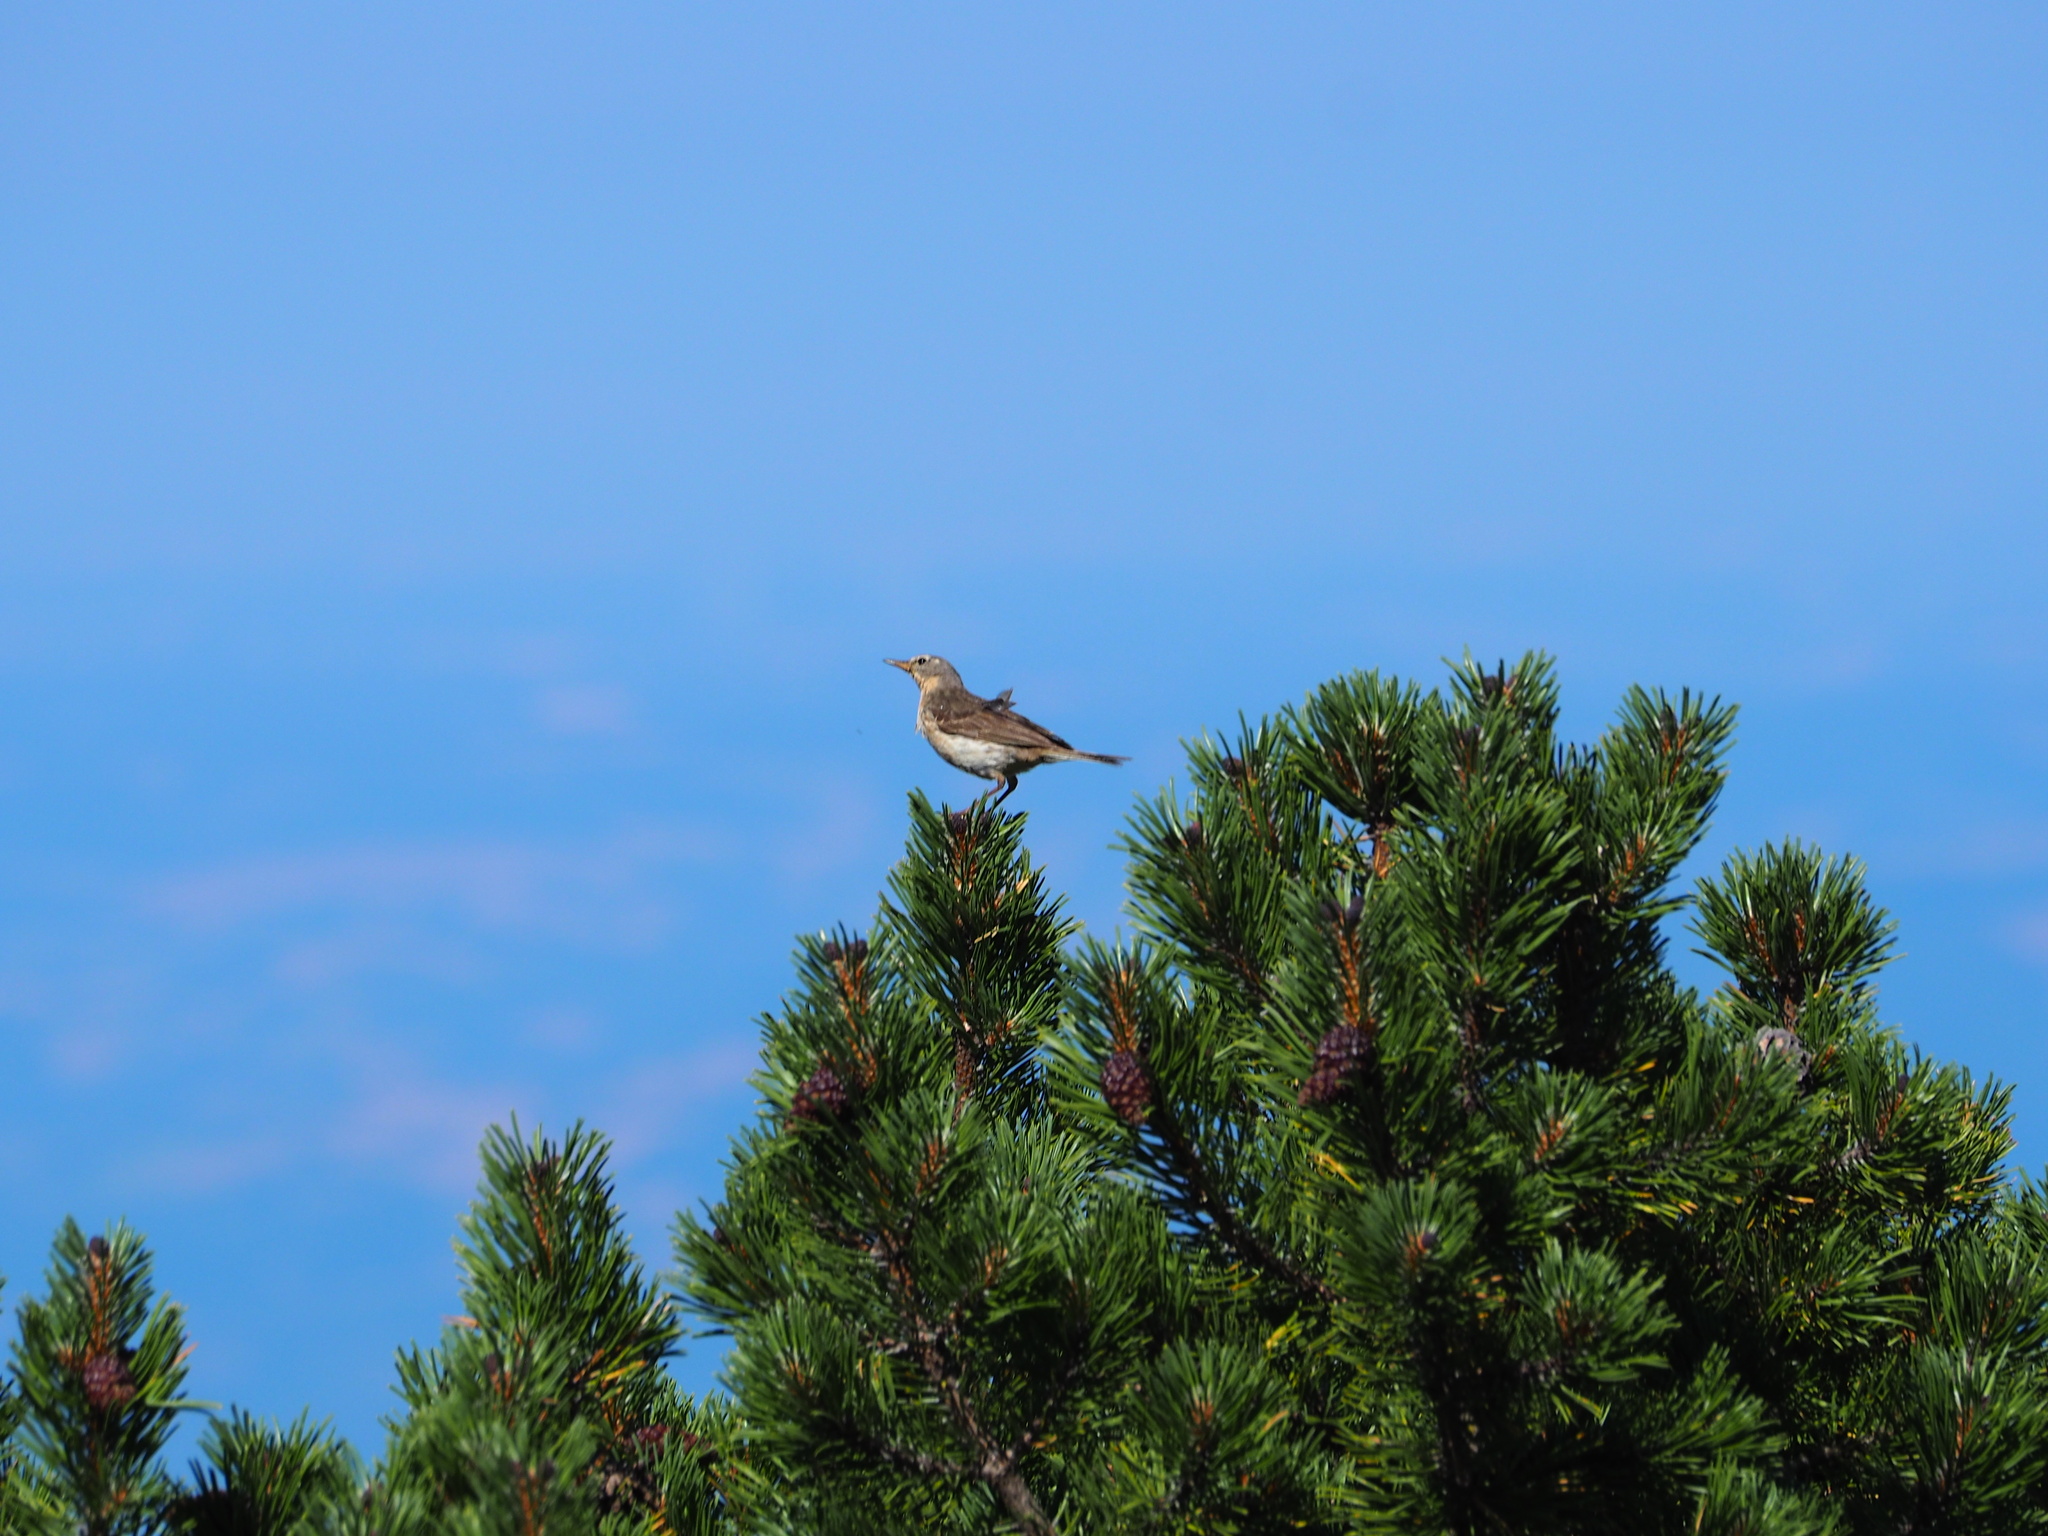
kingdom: Animalia
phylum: Chordata
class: Aves
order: Passeriformes
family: Motacillidae
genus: Anthus
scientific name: Anthus spinoletta
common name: Water pipit
